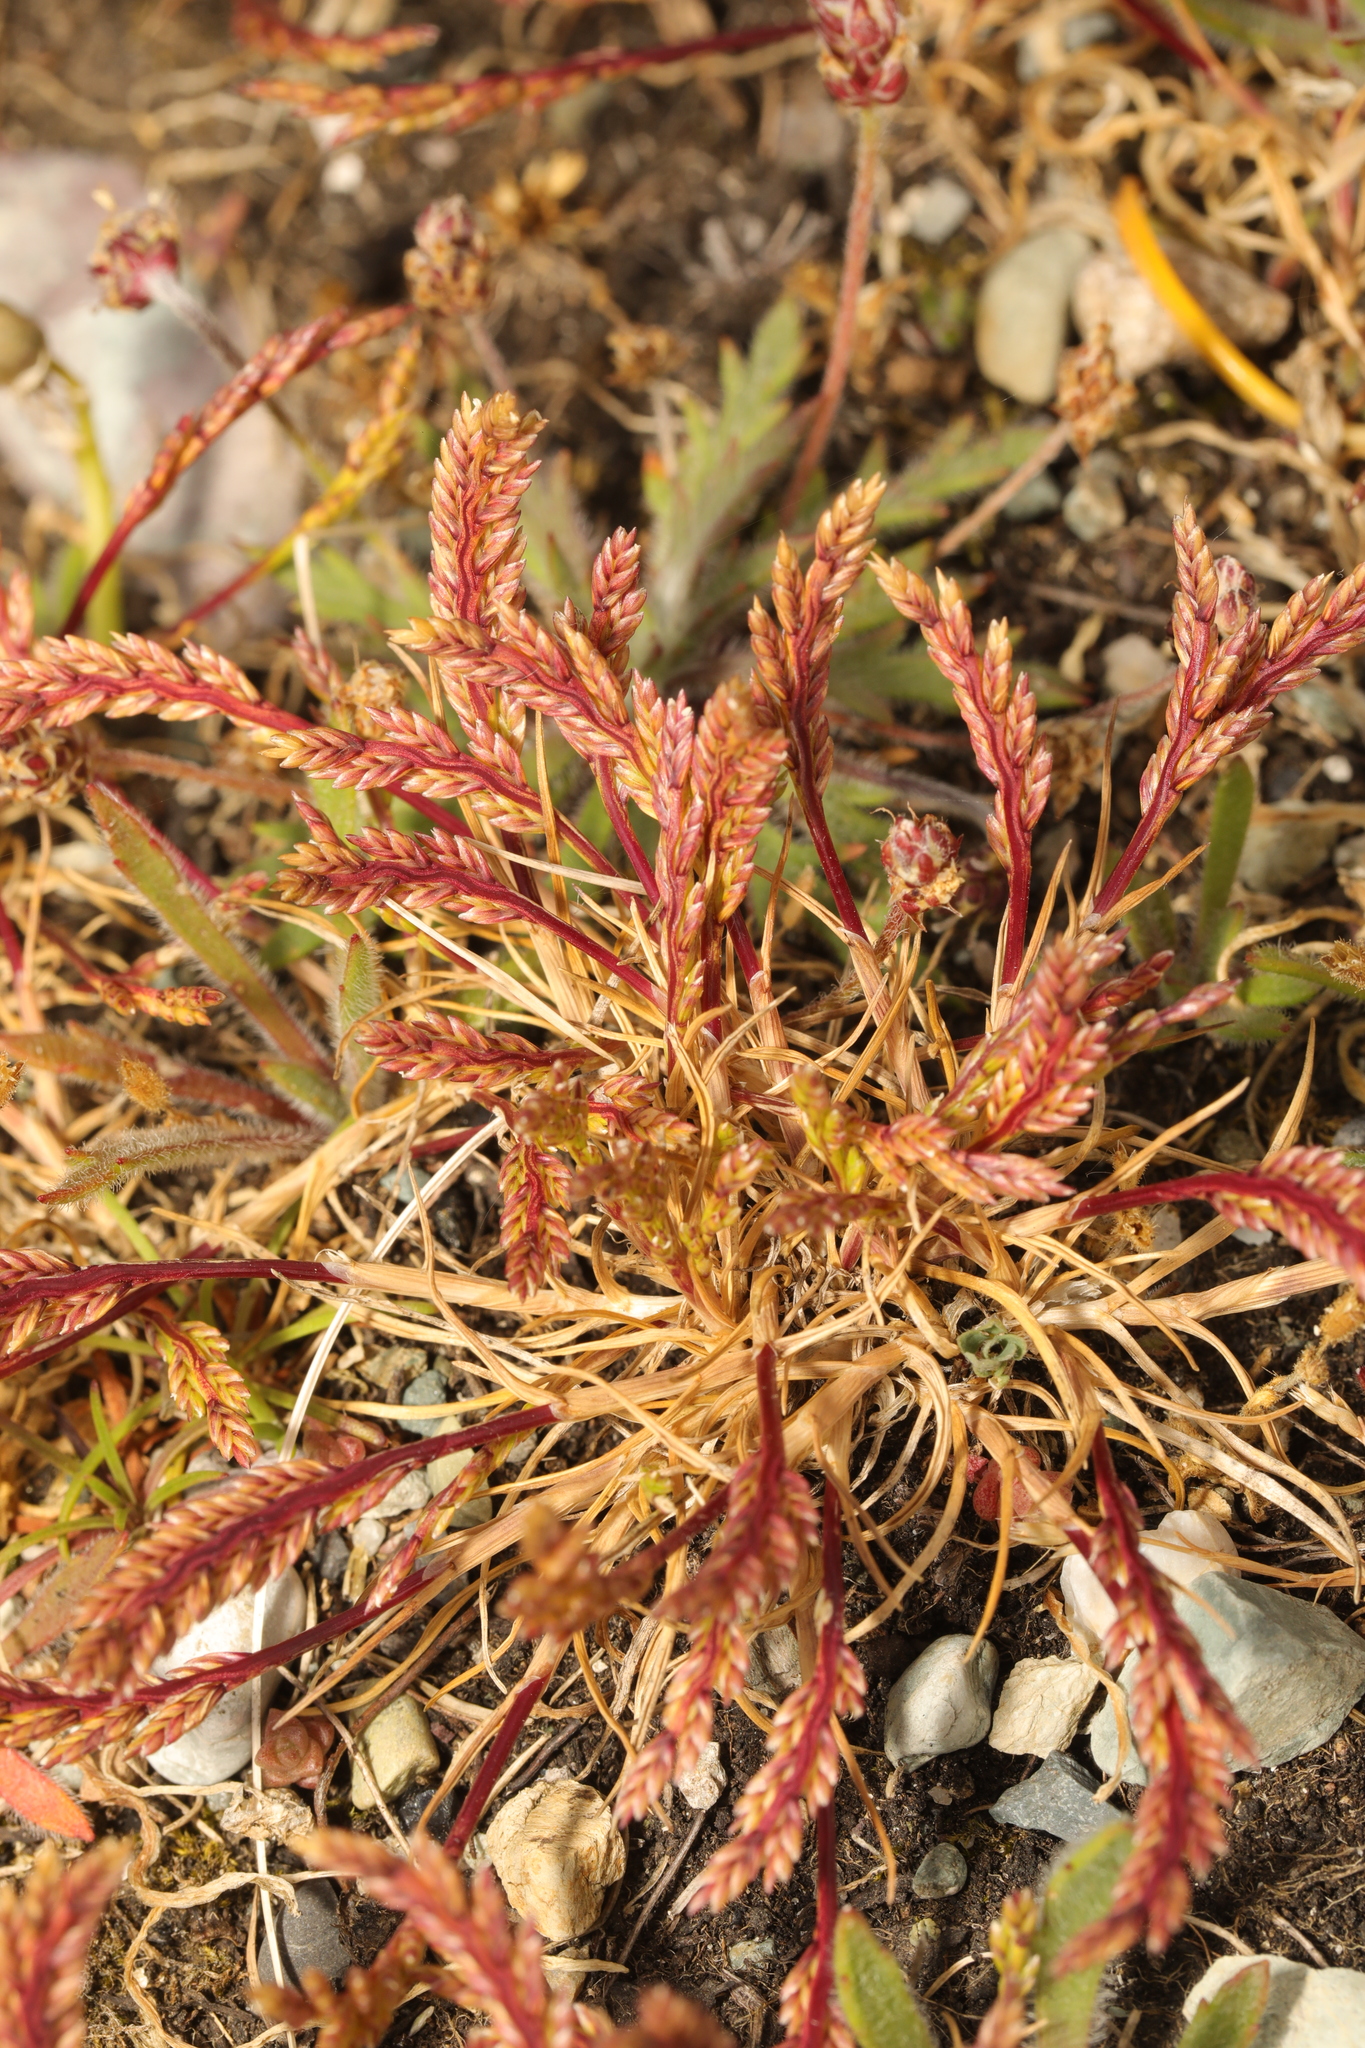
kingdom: Plantae
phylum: Tracheophyta
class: Liliopsida
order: Poales
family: Poaceae
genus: Catapodium
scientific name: Catapodium marinum
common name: Sea fern-grass
